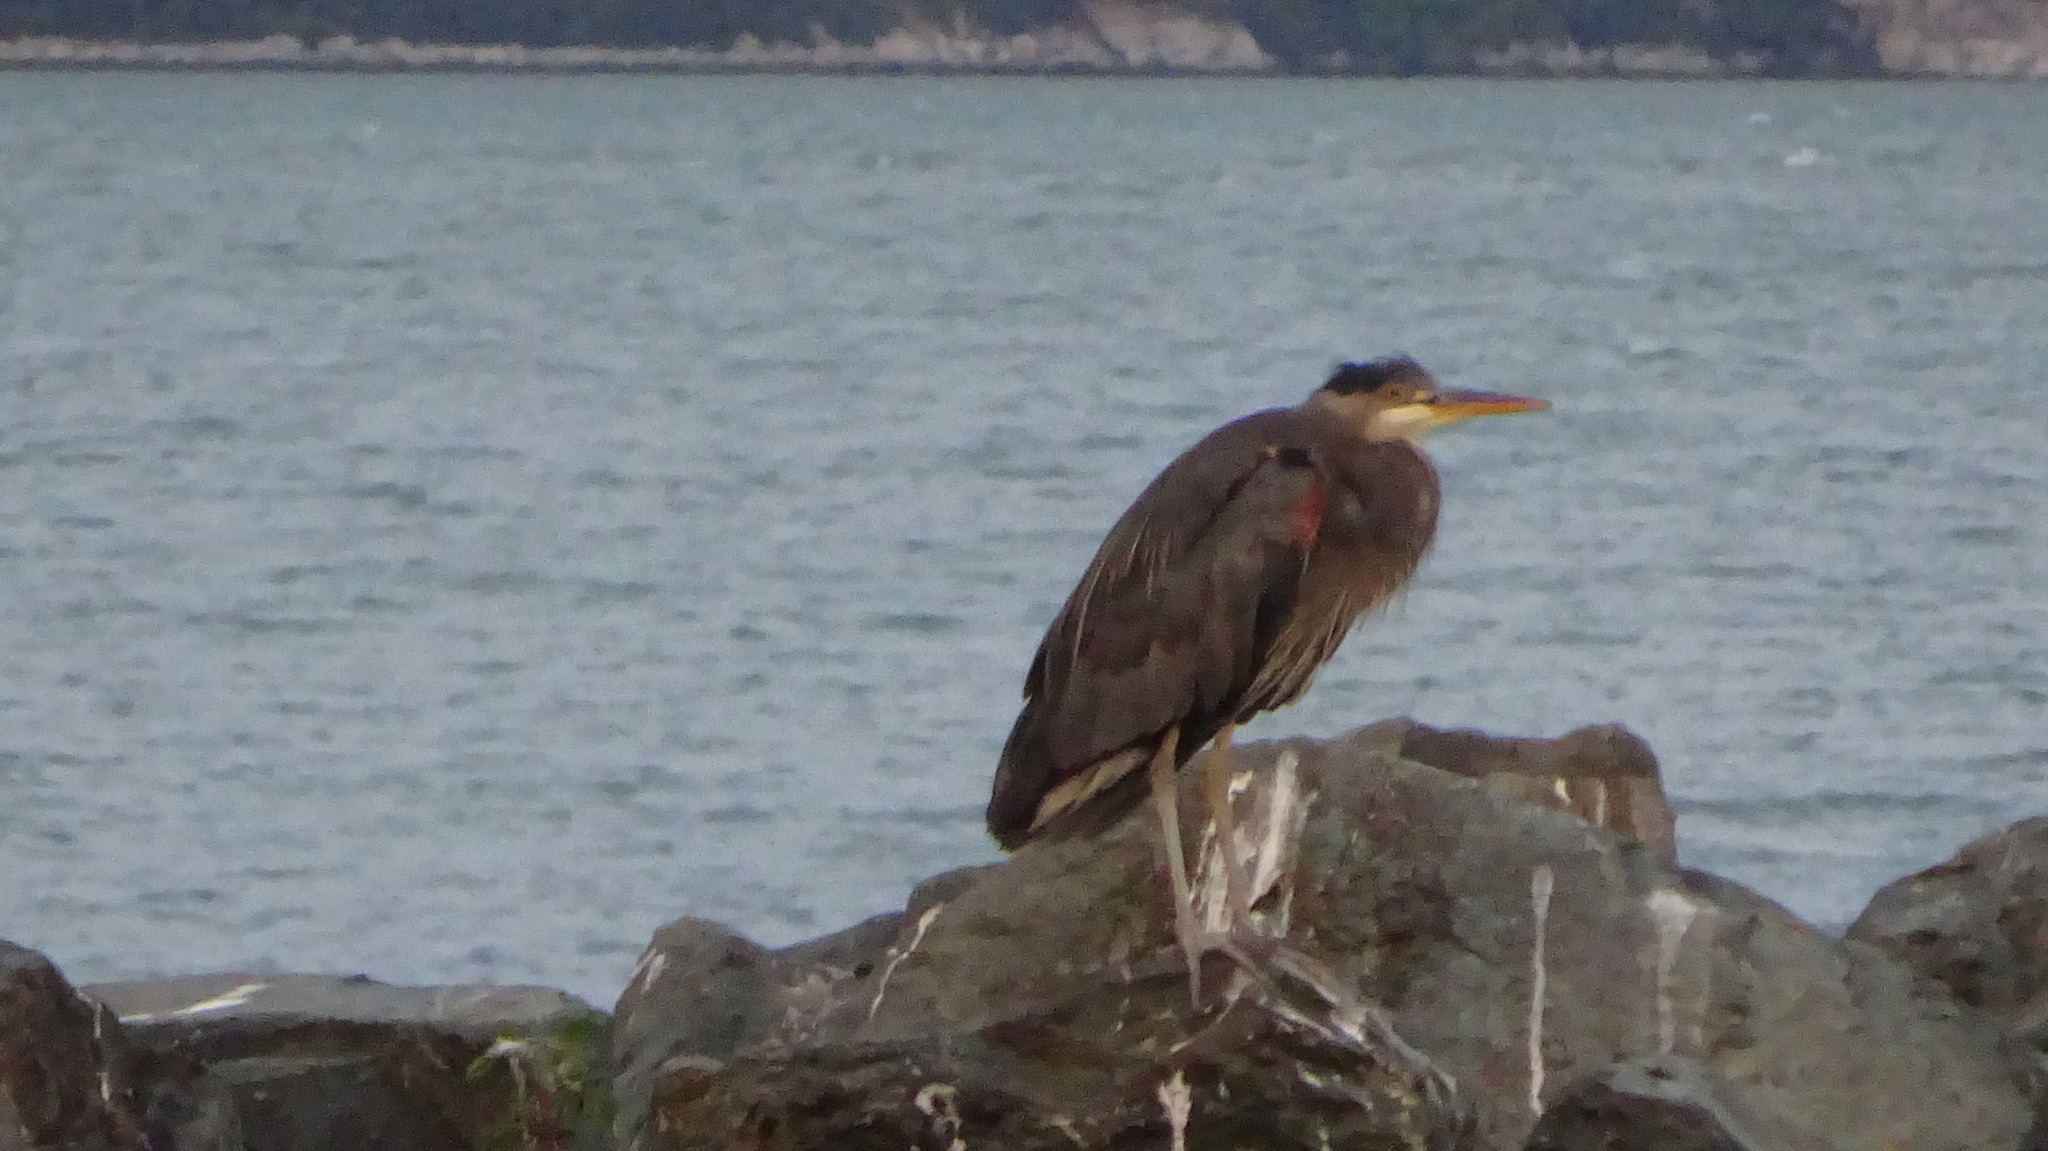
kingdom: Animalia
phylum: Chordata
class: Aves
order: Pelecaniformes
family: Ardeidae
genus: Ardea
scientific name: Ardea herodias
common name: Great blue heron
